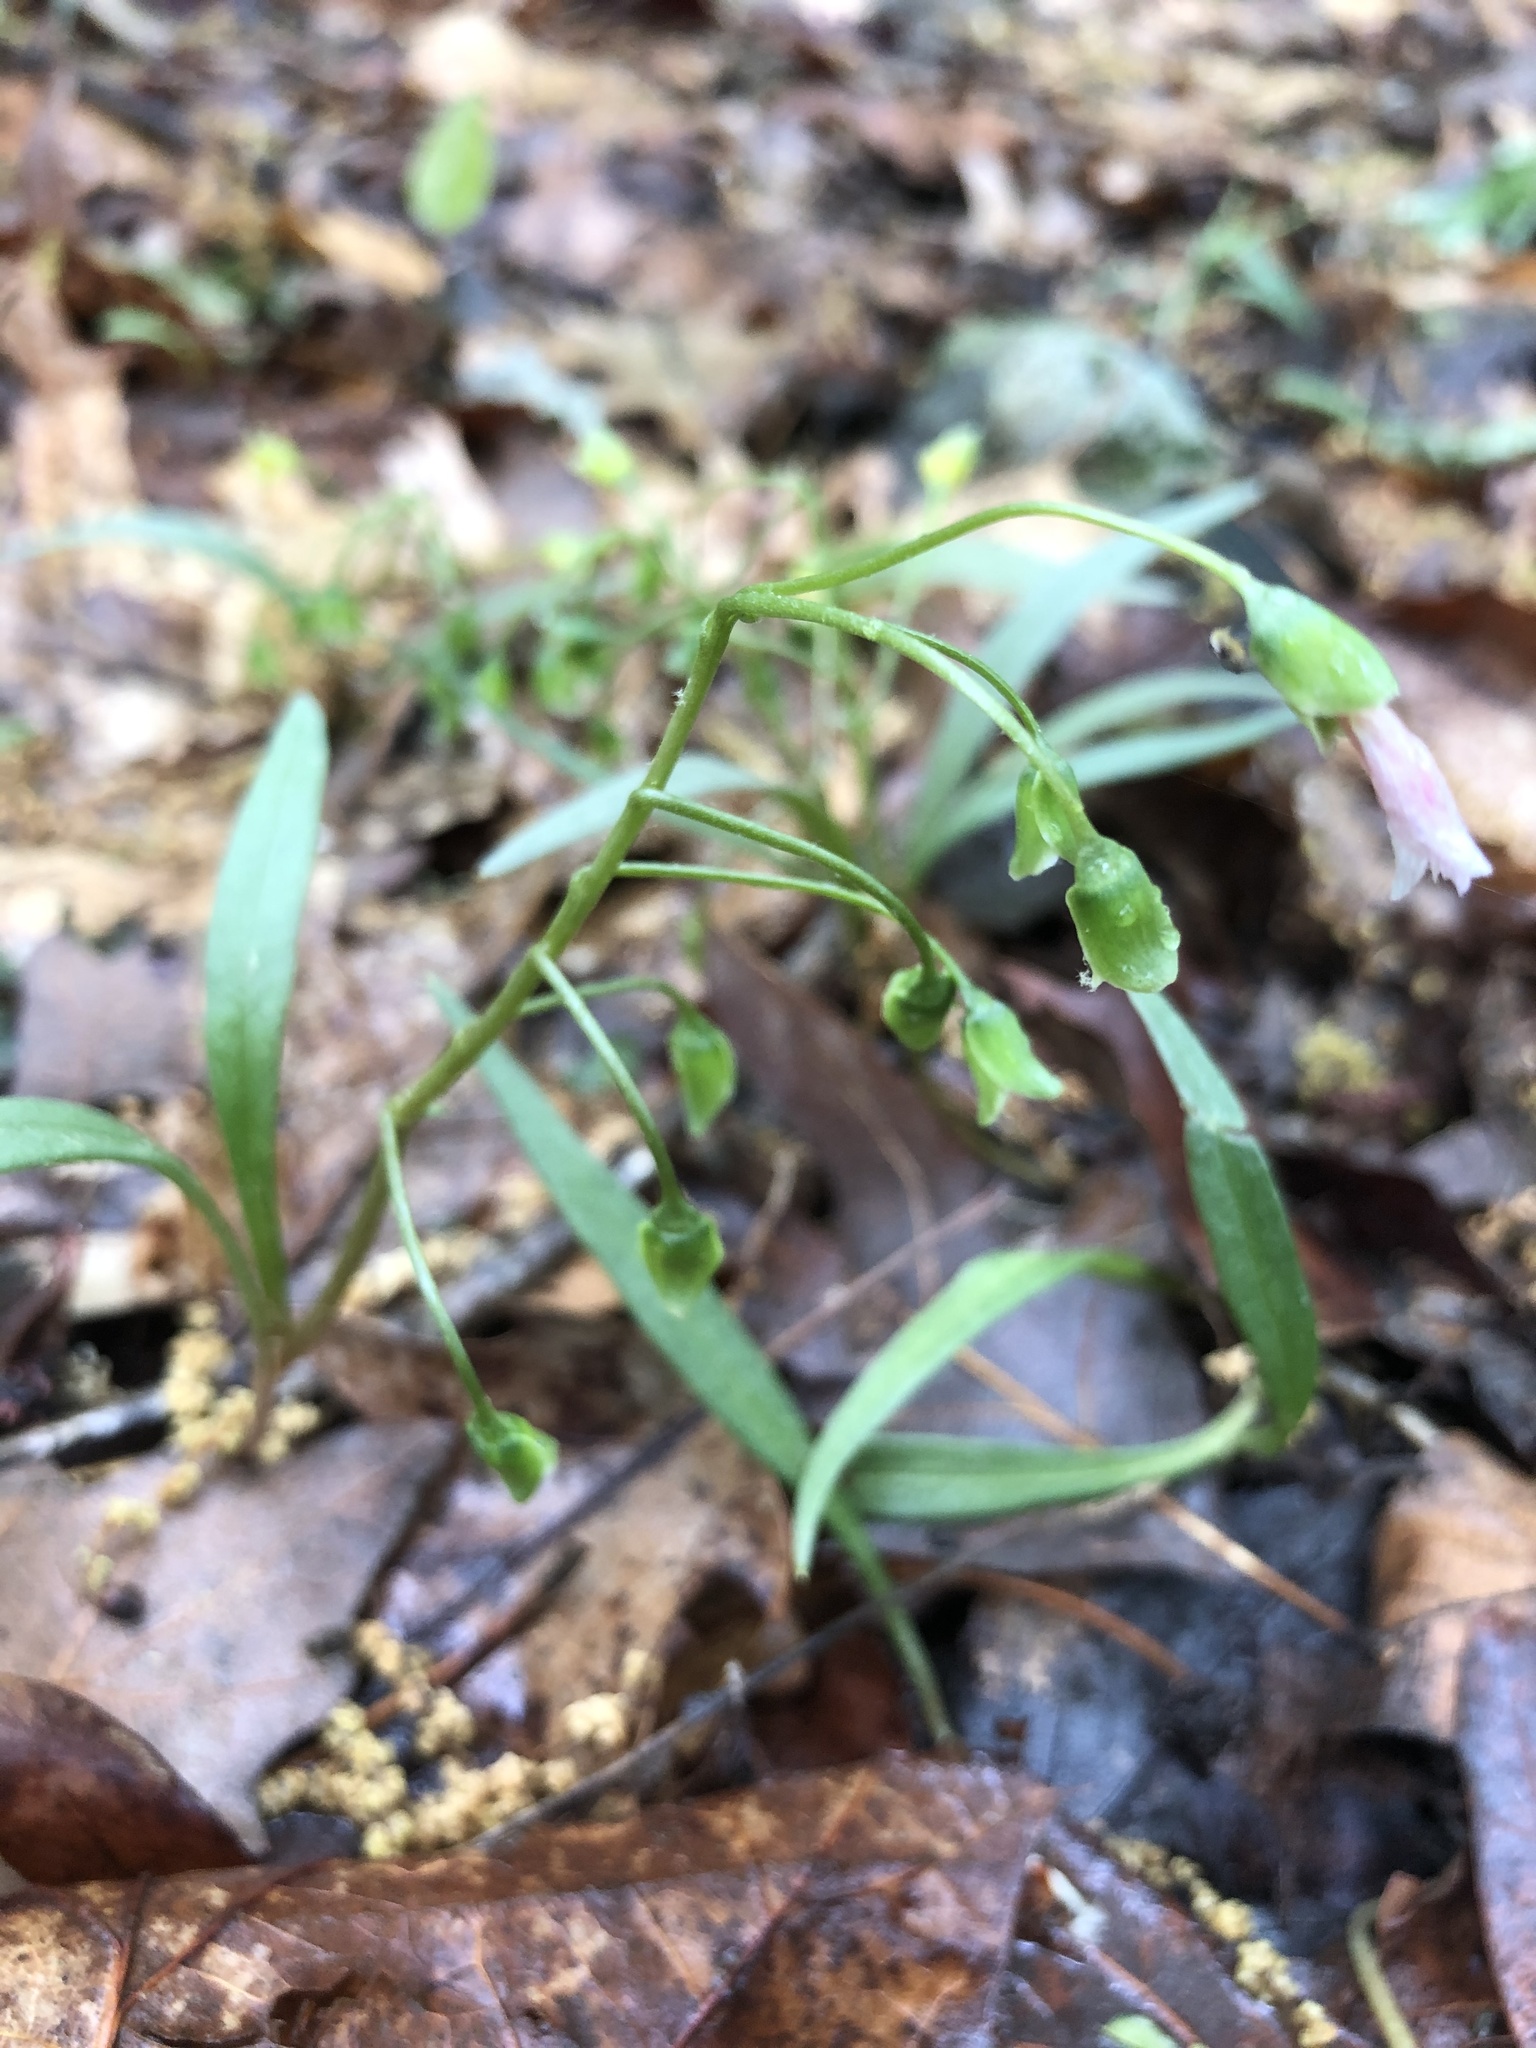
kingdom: Plantae
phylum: Tracheophyta
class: Magnoliopsida
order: Caryophyllales
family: Montiaceae
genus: Claytonia
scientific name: Claytonia virginica
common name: Virginia springbeauty
